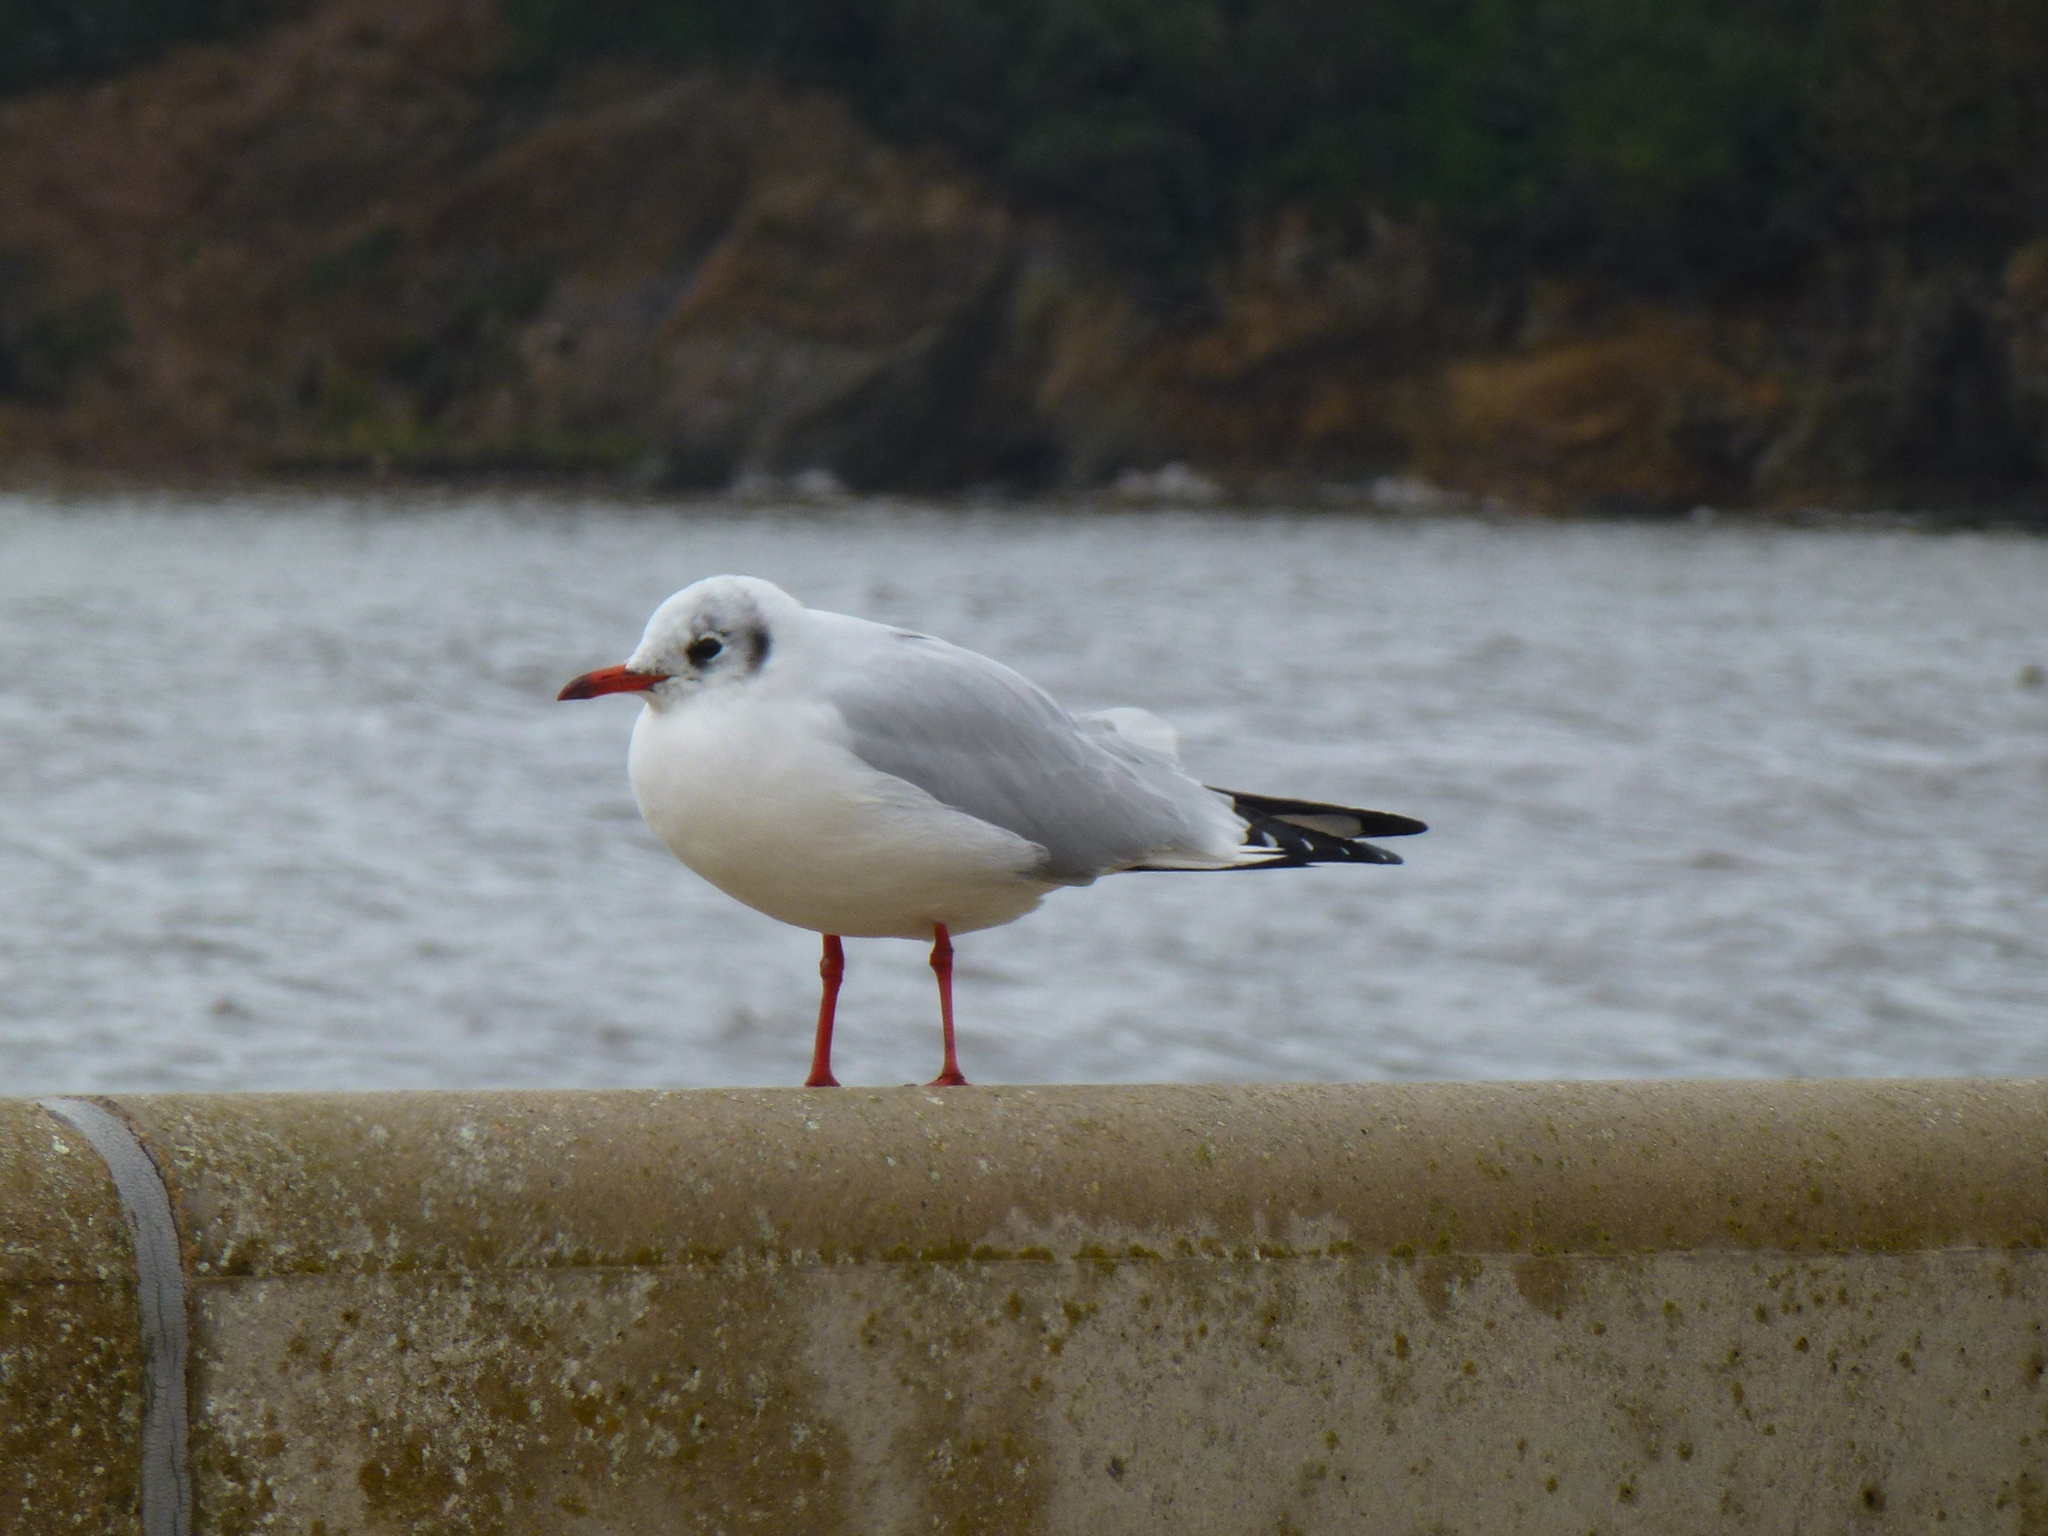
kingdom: Animalia
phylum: Chordata
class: Aves
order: Charadriiformes
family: Laridae
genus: Chroicocephalus
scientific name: Chroicocephalus ridibundus
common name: Black-headed gull
